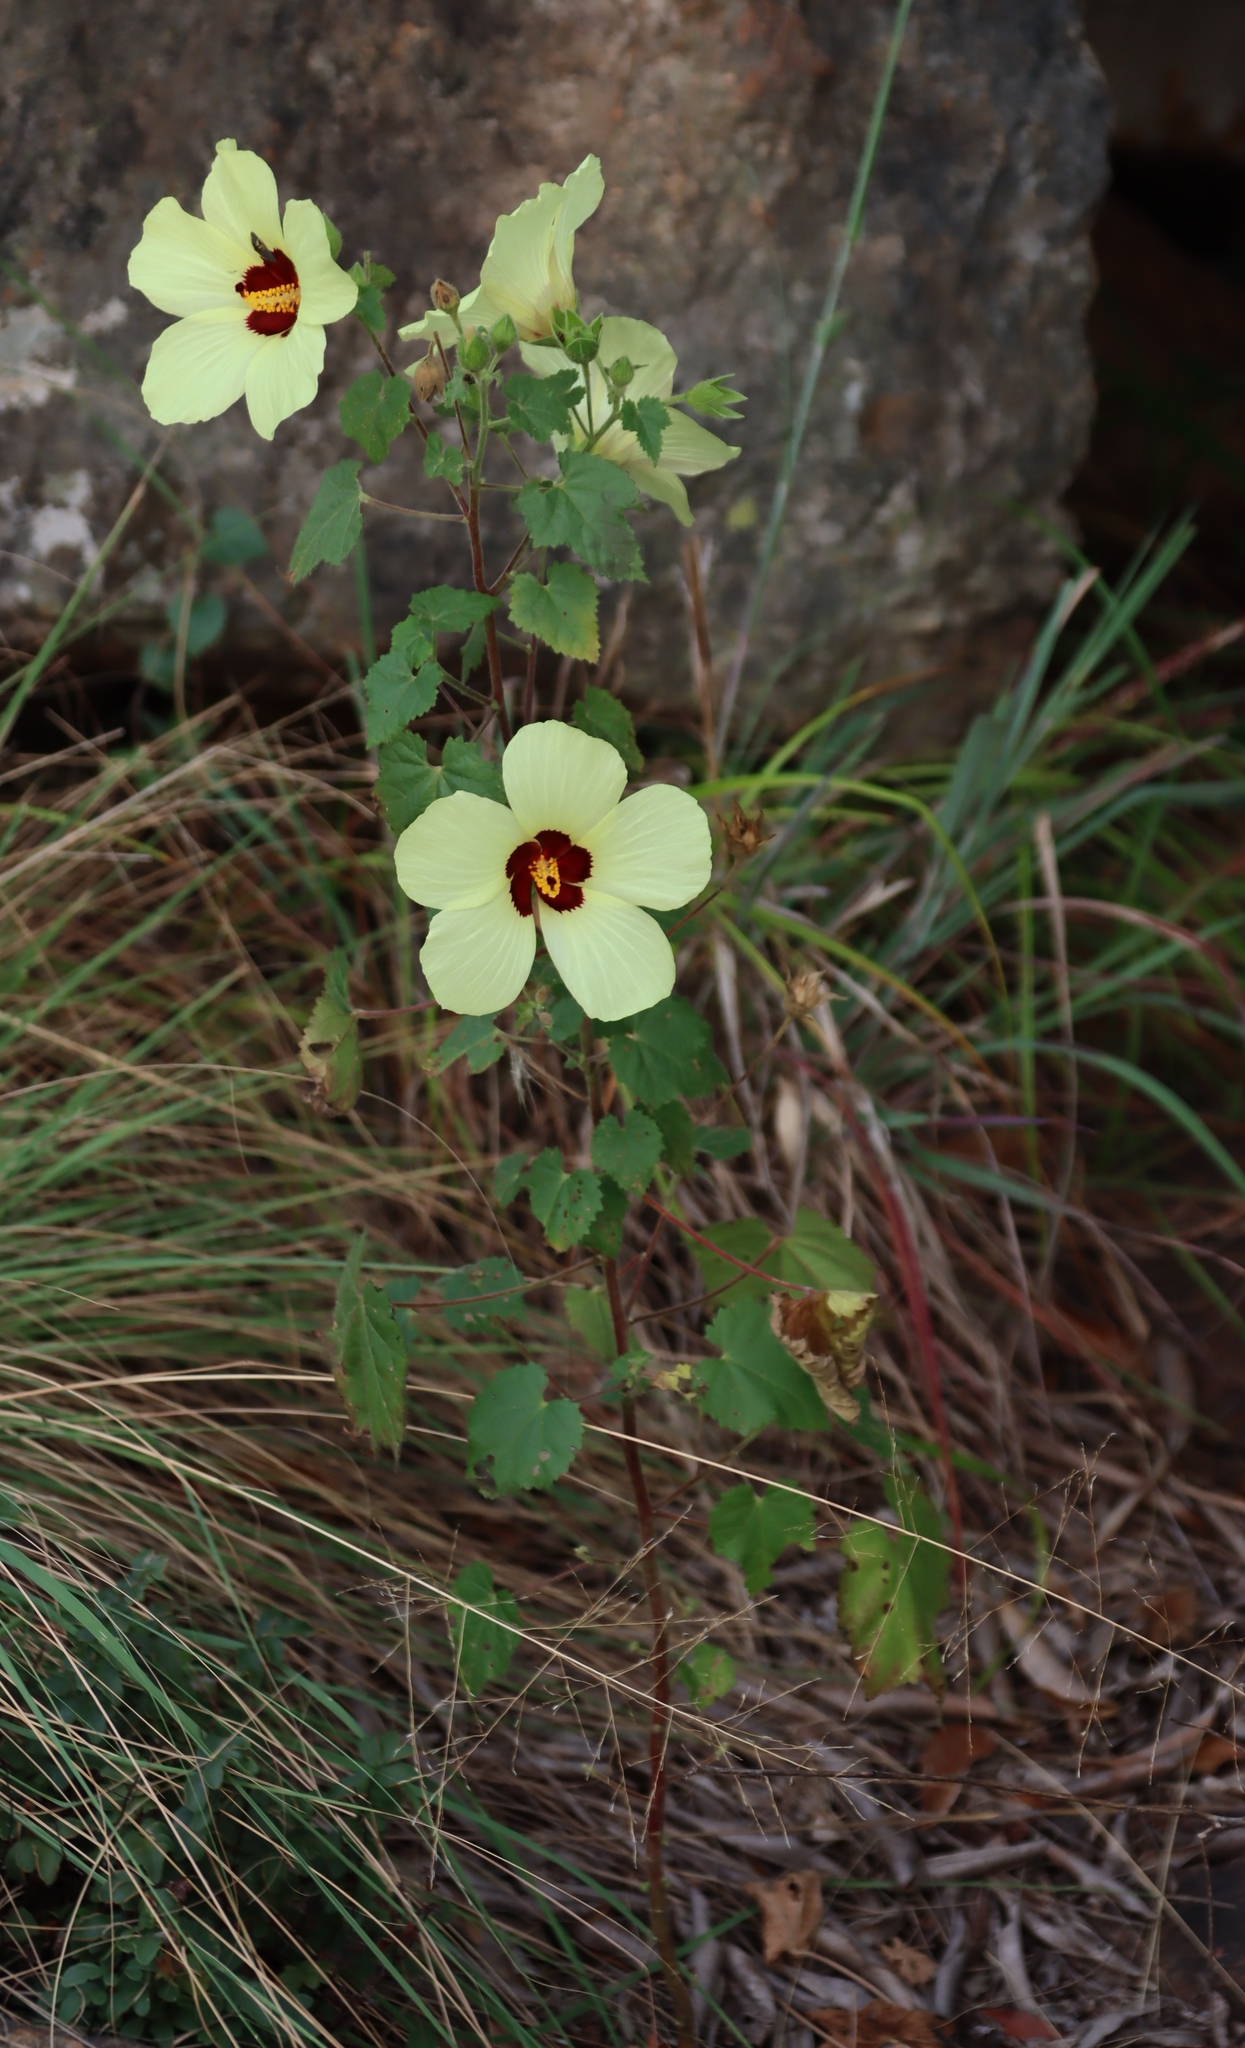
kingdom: Plantae
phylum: Tracheophyta
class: Magnoliopsida
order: Malvales
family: Malvaceae
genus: Hibiscus
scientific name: Hibiscus engleri
